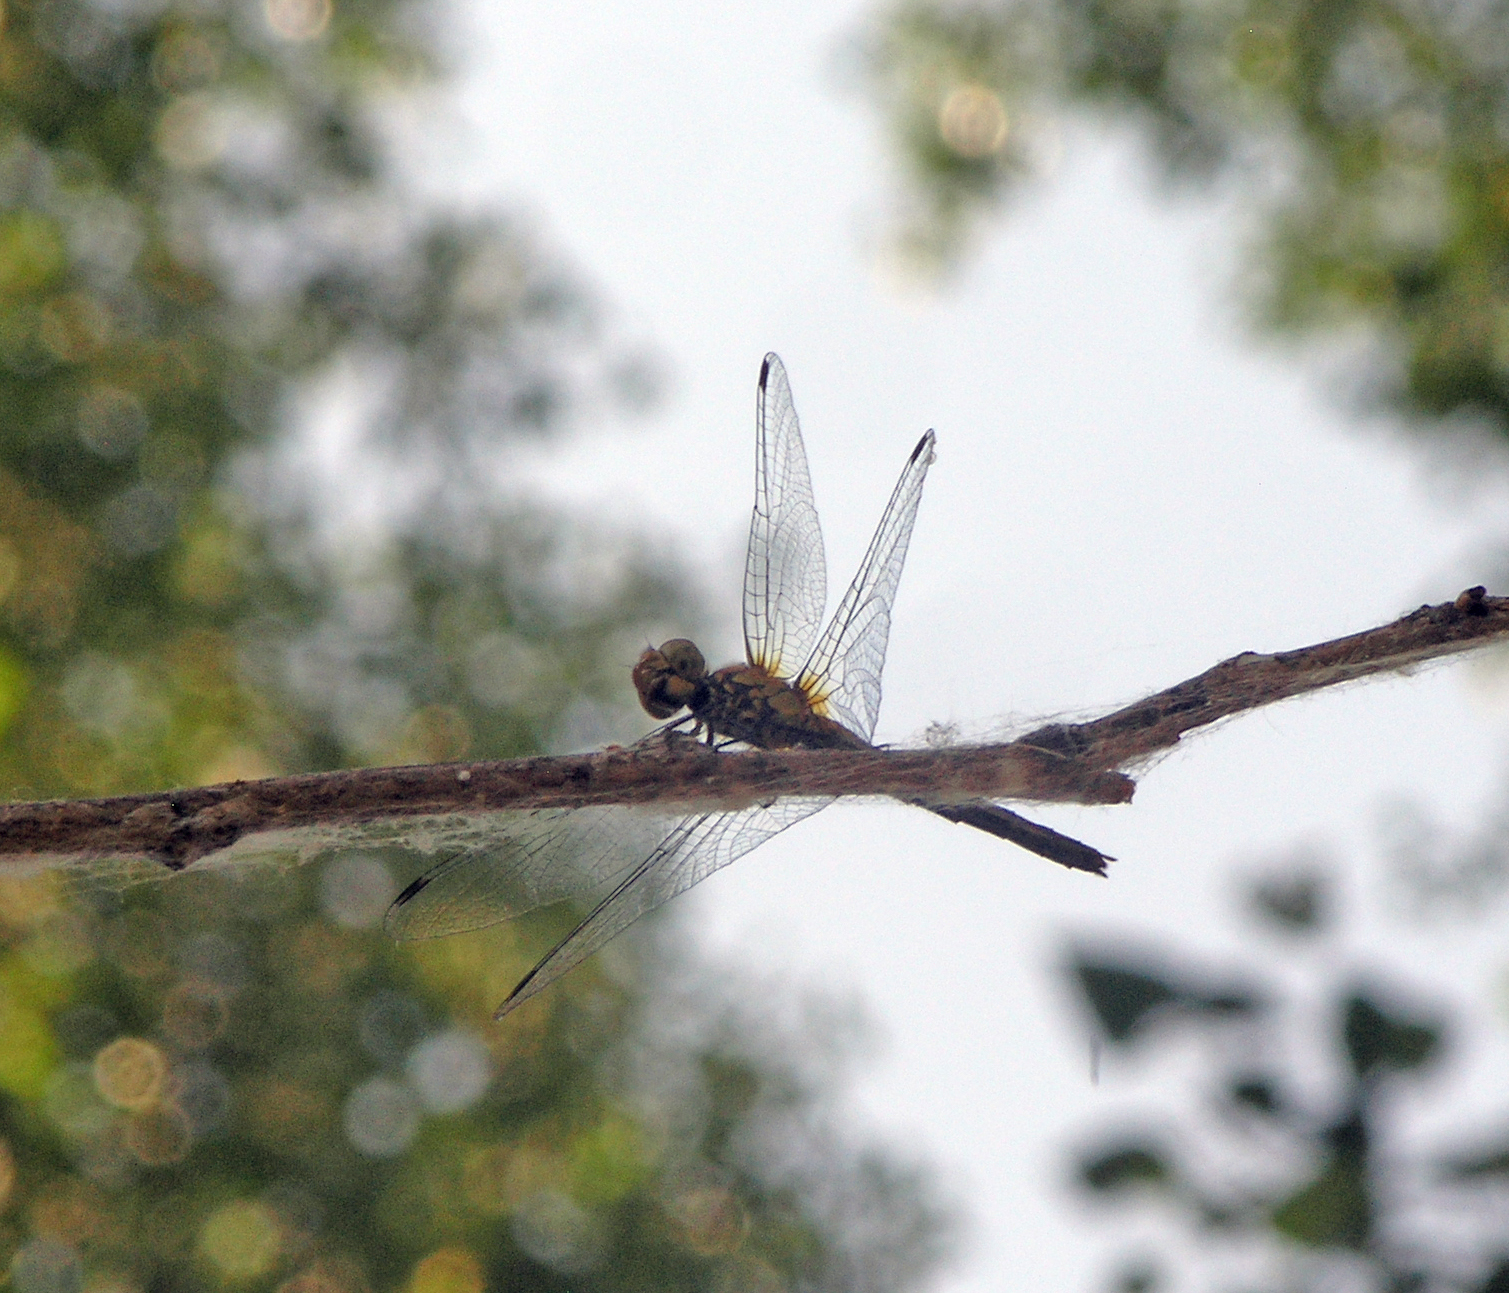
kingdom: Animalia
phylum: Arthropoda
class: Insecta
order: Odonata
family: Libellulidae
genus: Sympetrum
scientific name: Sympetrum sanguineum
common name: Ruddy darter
